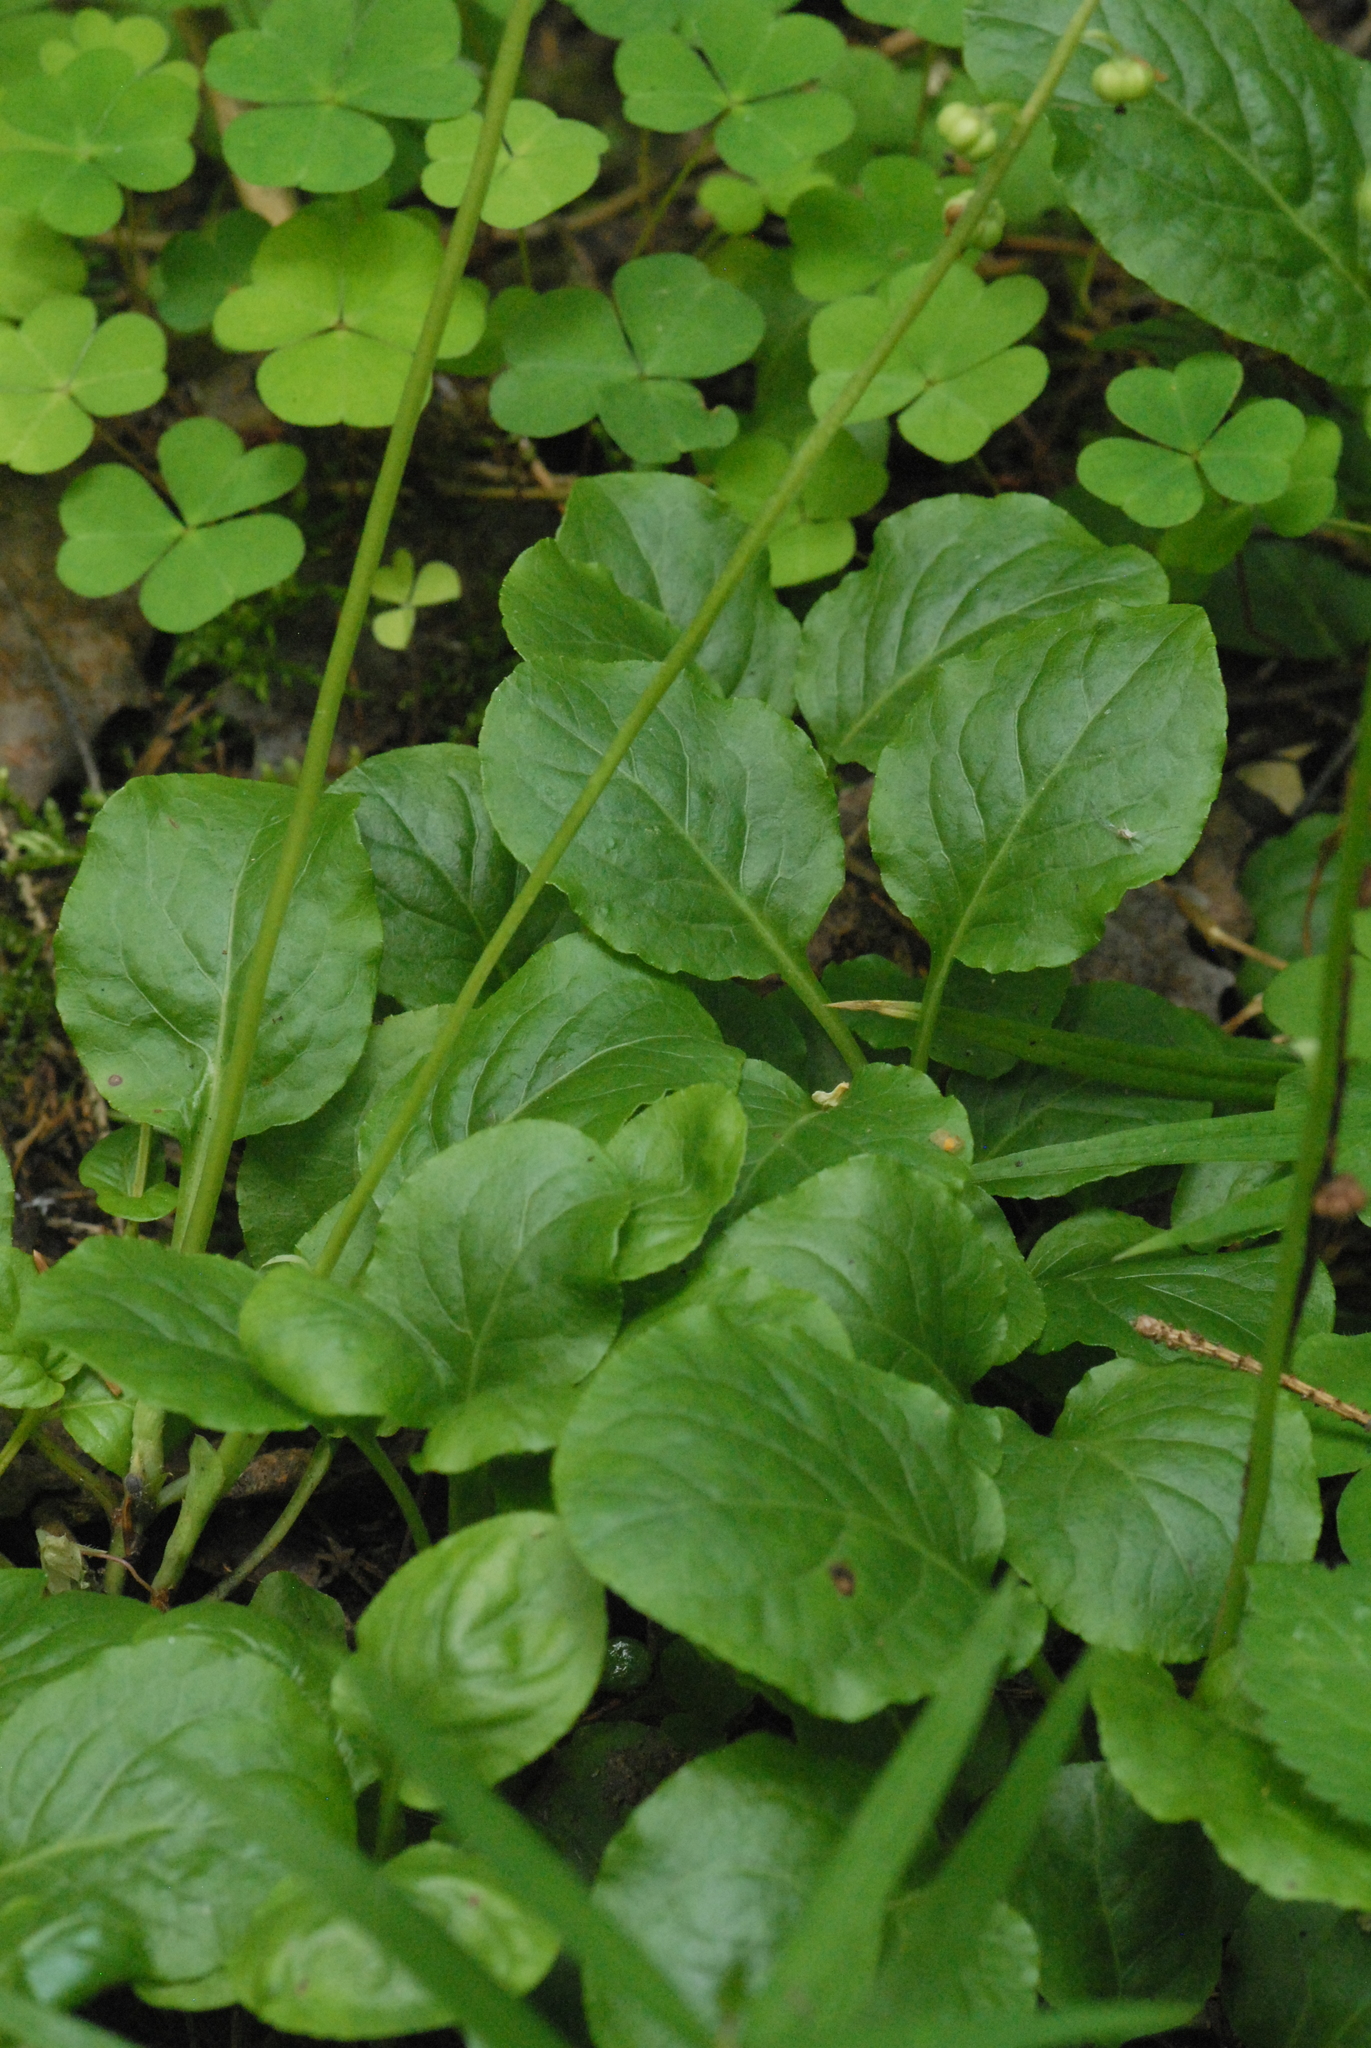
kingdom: Plantae
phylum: Tracheophyta
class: Magnoliopsida
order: Ericales
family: Ericaceae
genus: Pyrola
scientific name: Pyrola minor
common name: Common wintergreen
